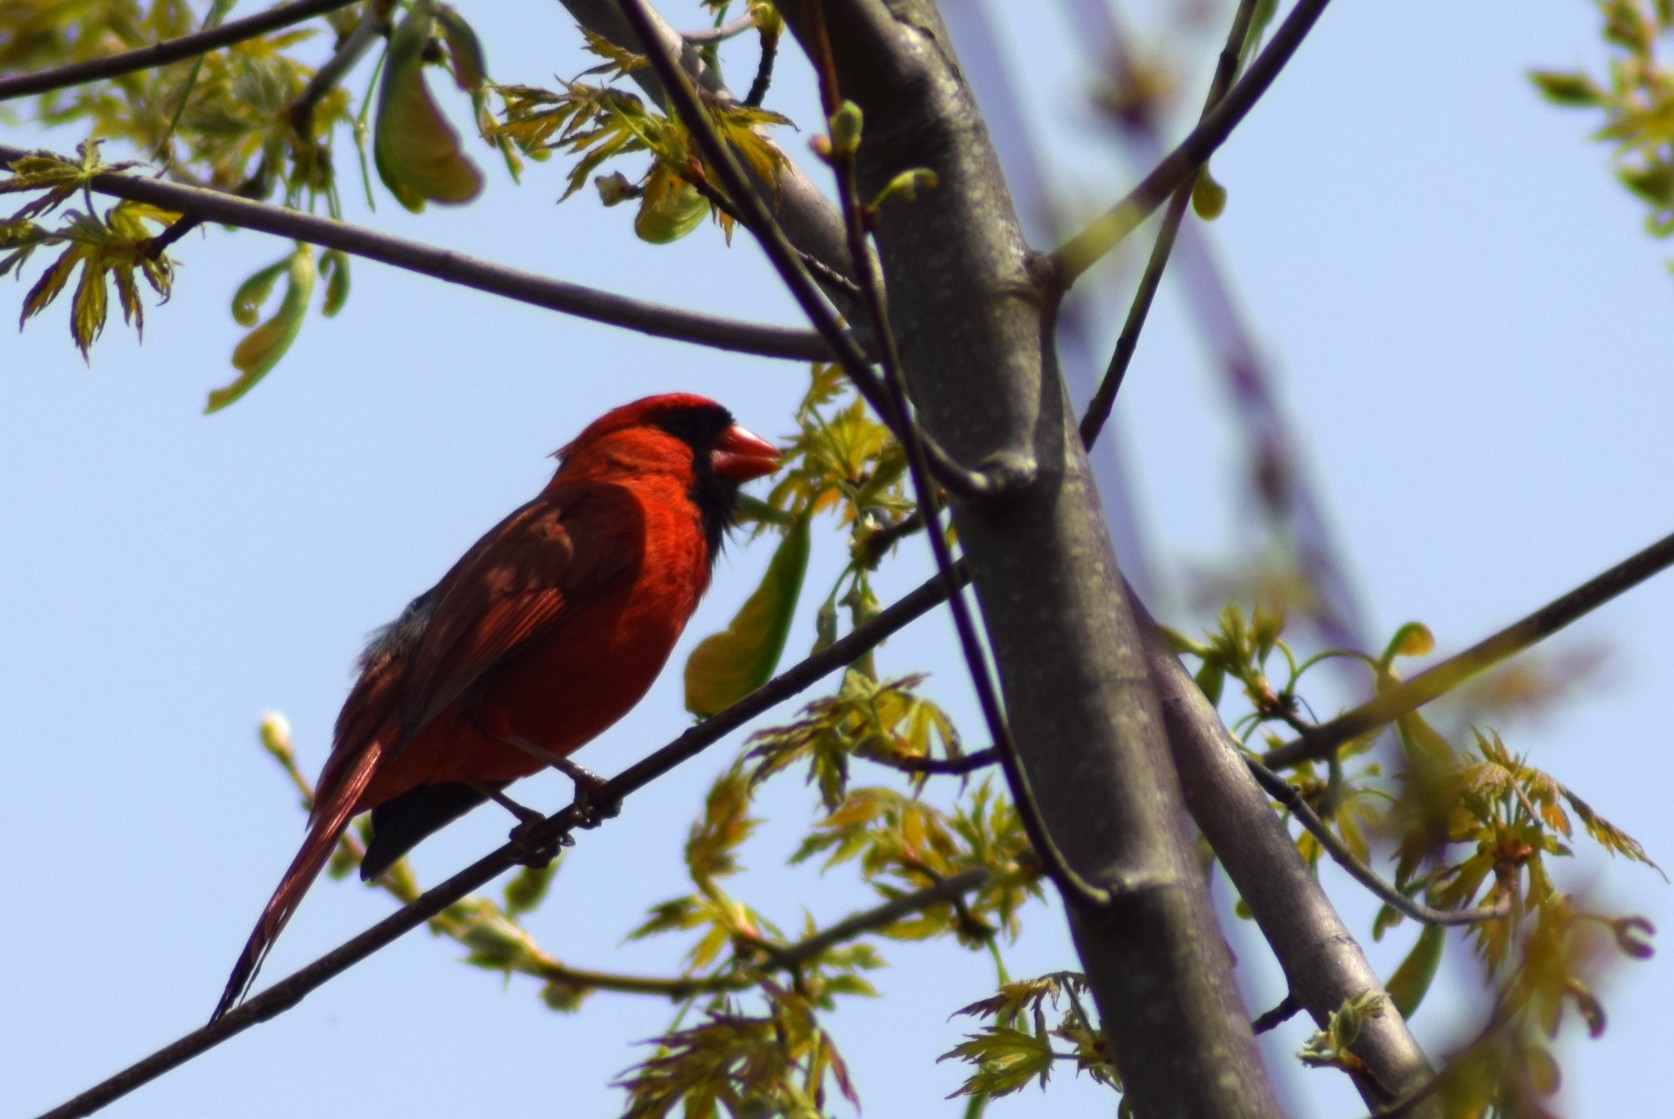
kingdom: Animalia
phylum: Chordata
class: Aves
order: Passeriformes
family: Cardinalidae
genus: Cardinalis
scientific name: Cardinalis cardinalis
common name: Northern cardinal
